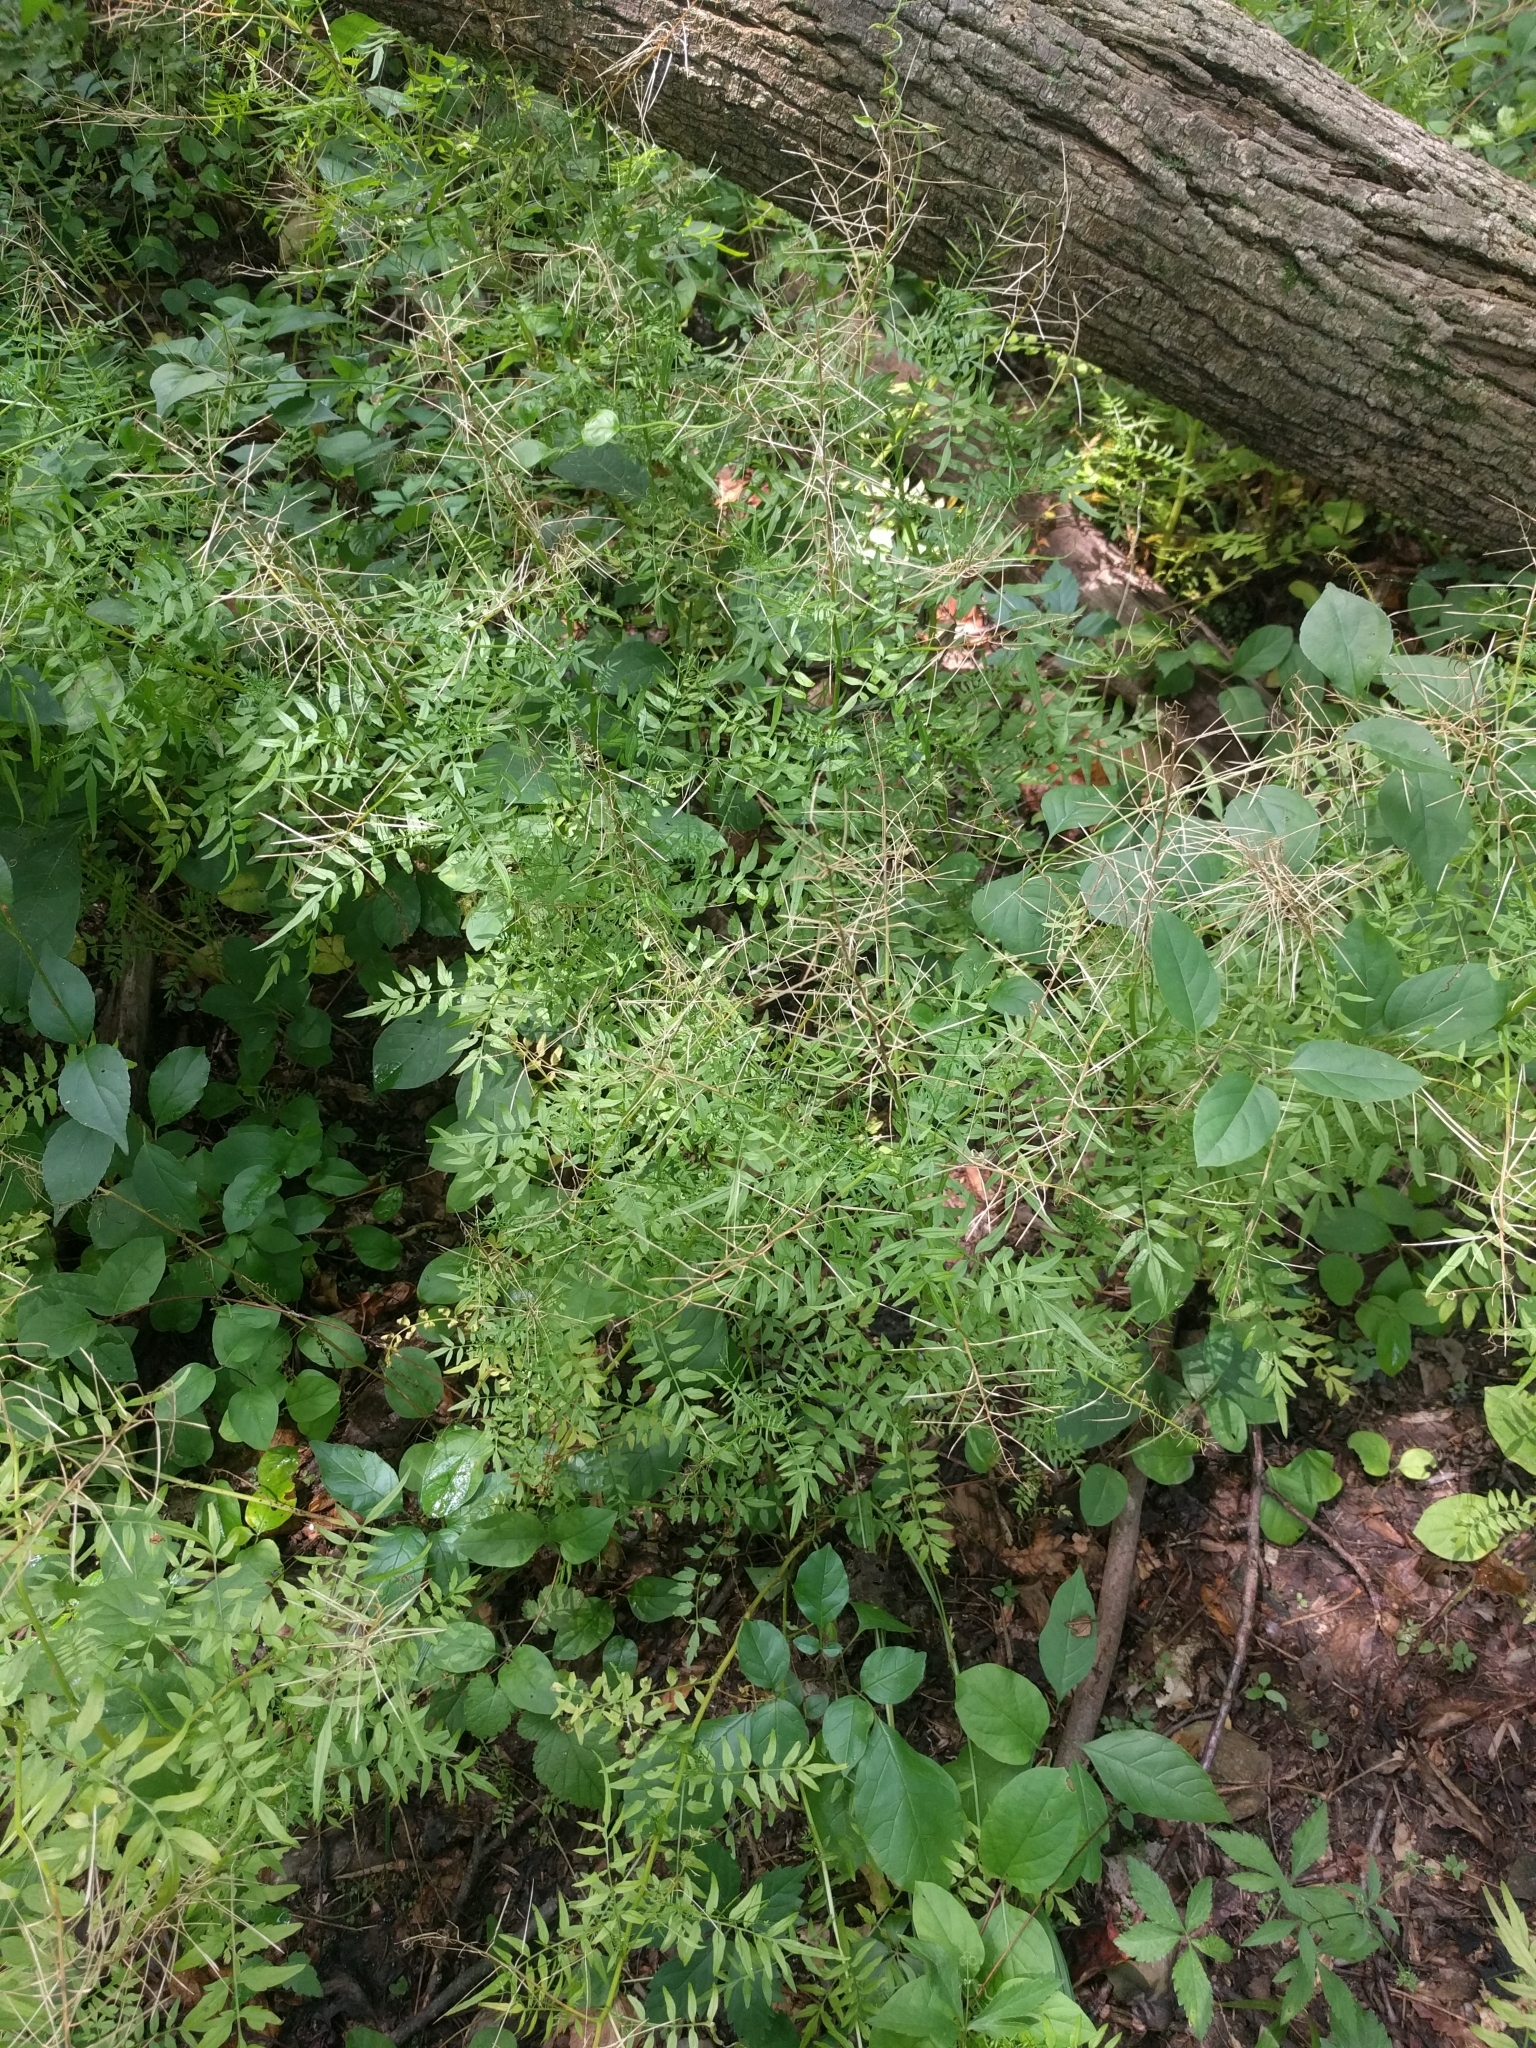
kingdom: Plantae
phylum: Tracheophyta
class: Magnoliopsida
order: Brassicales
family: Brassicaceae
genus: Cardamine
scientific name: Cardamine impatiens
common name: Narrow-leaved bitter-cress
